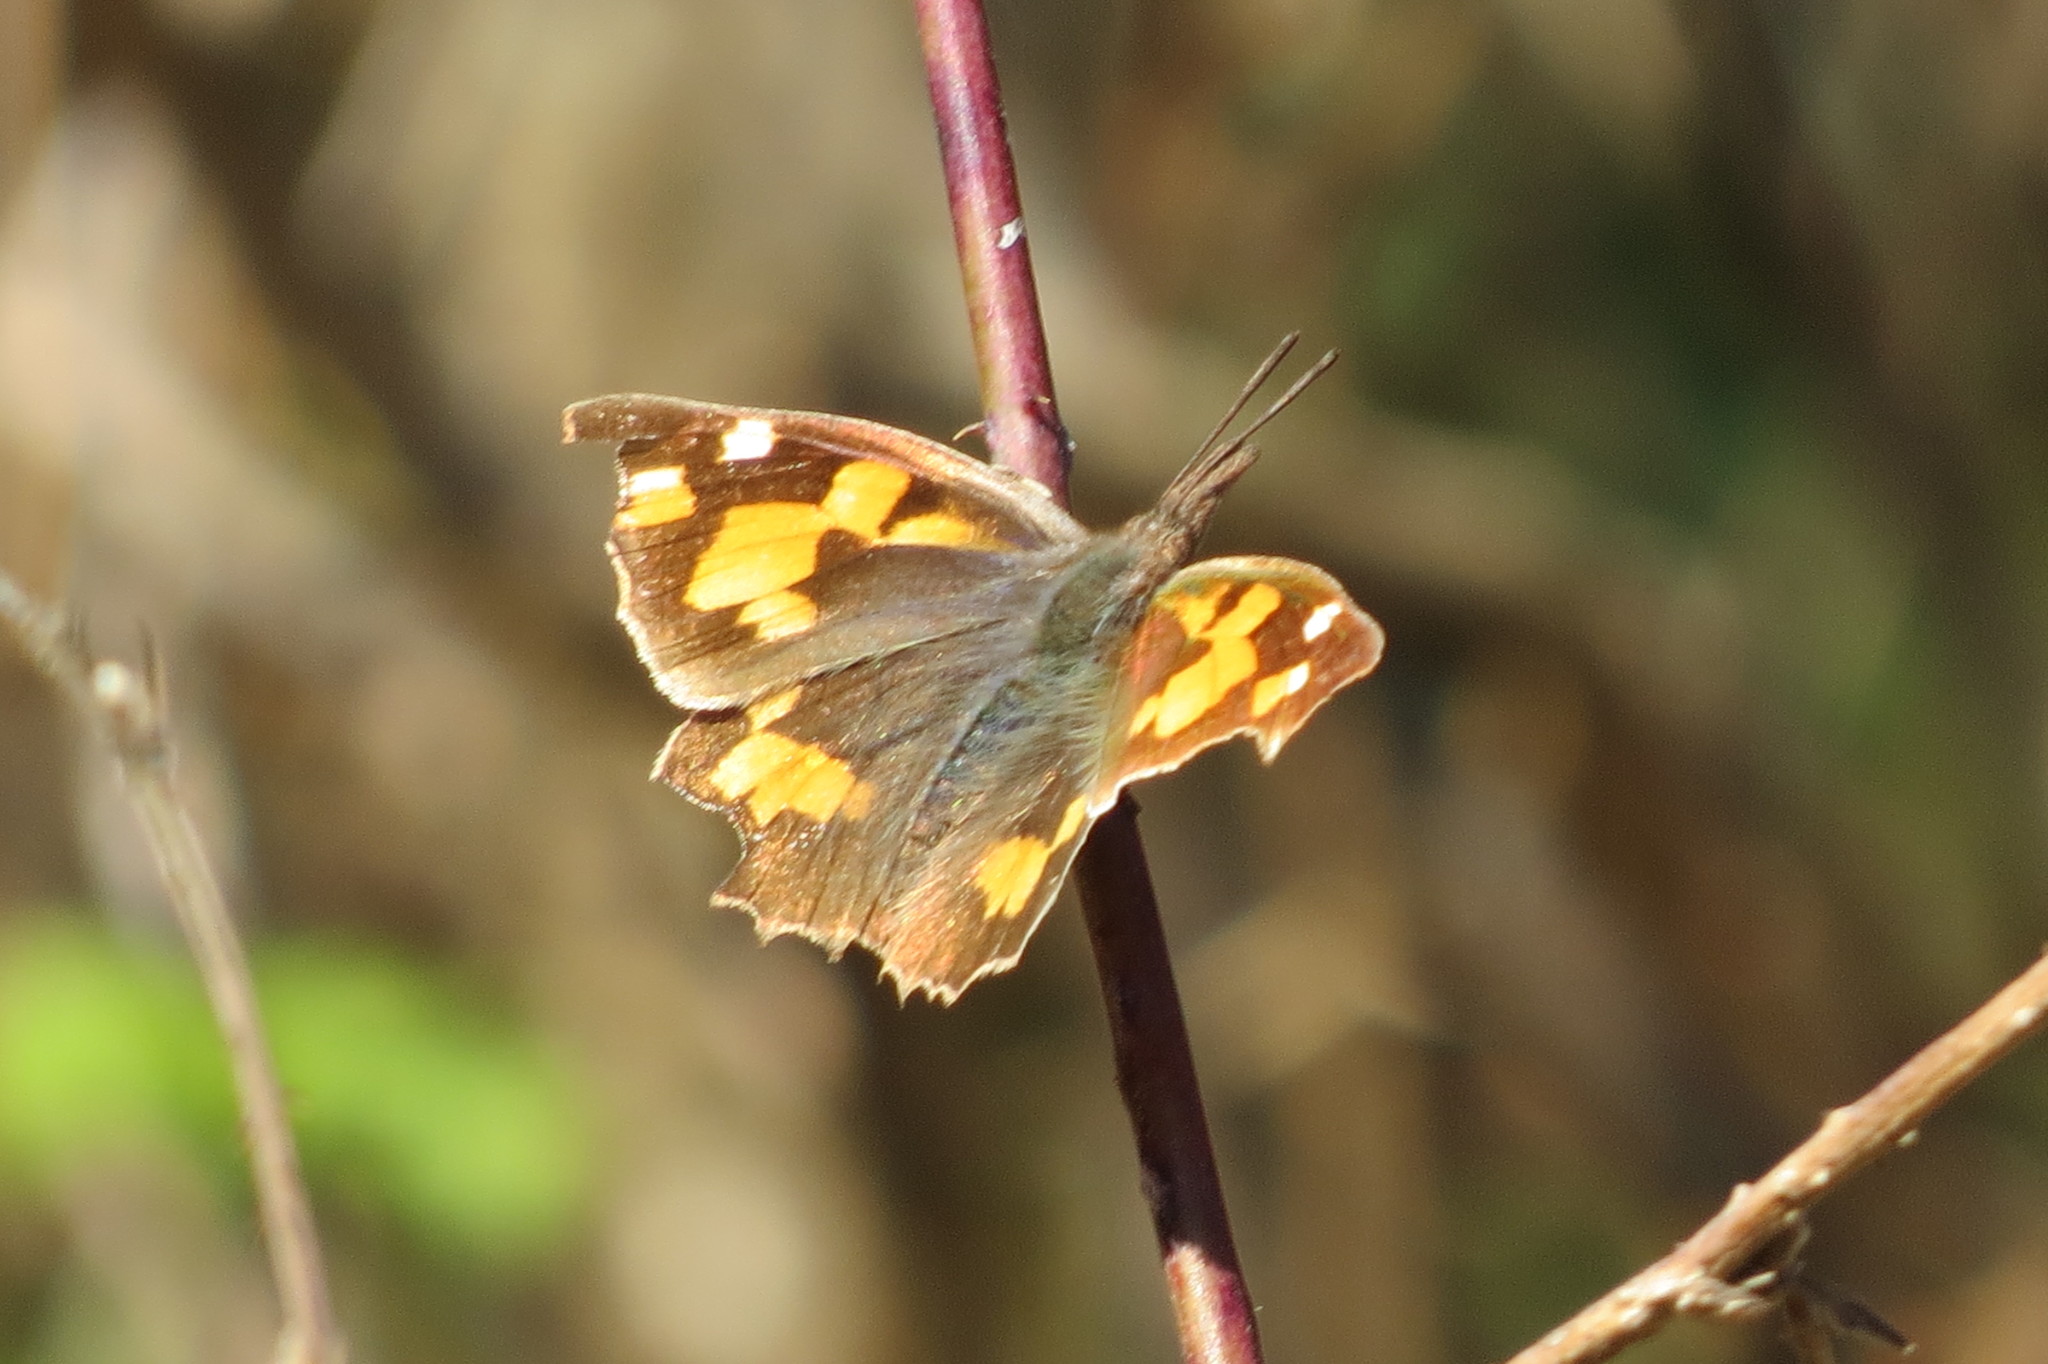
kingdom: Animalia
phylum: Arthropoda
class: Insecta
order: Lepidoptera
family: Nymphalidae
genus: Libythea
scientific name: Libythea celtis
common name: Nettle-tree butterfly
